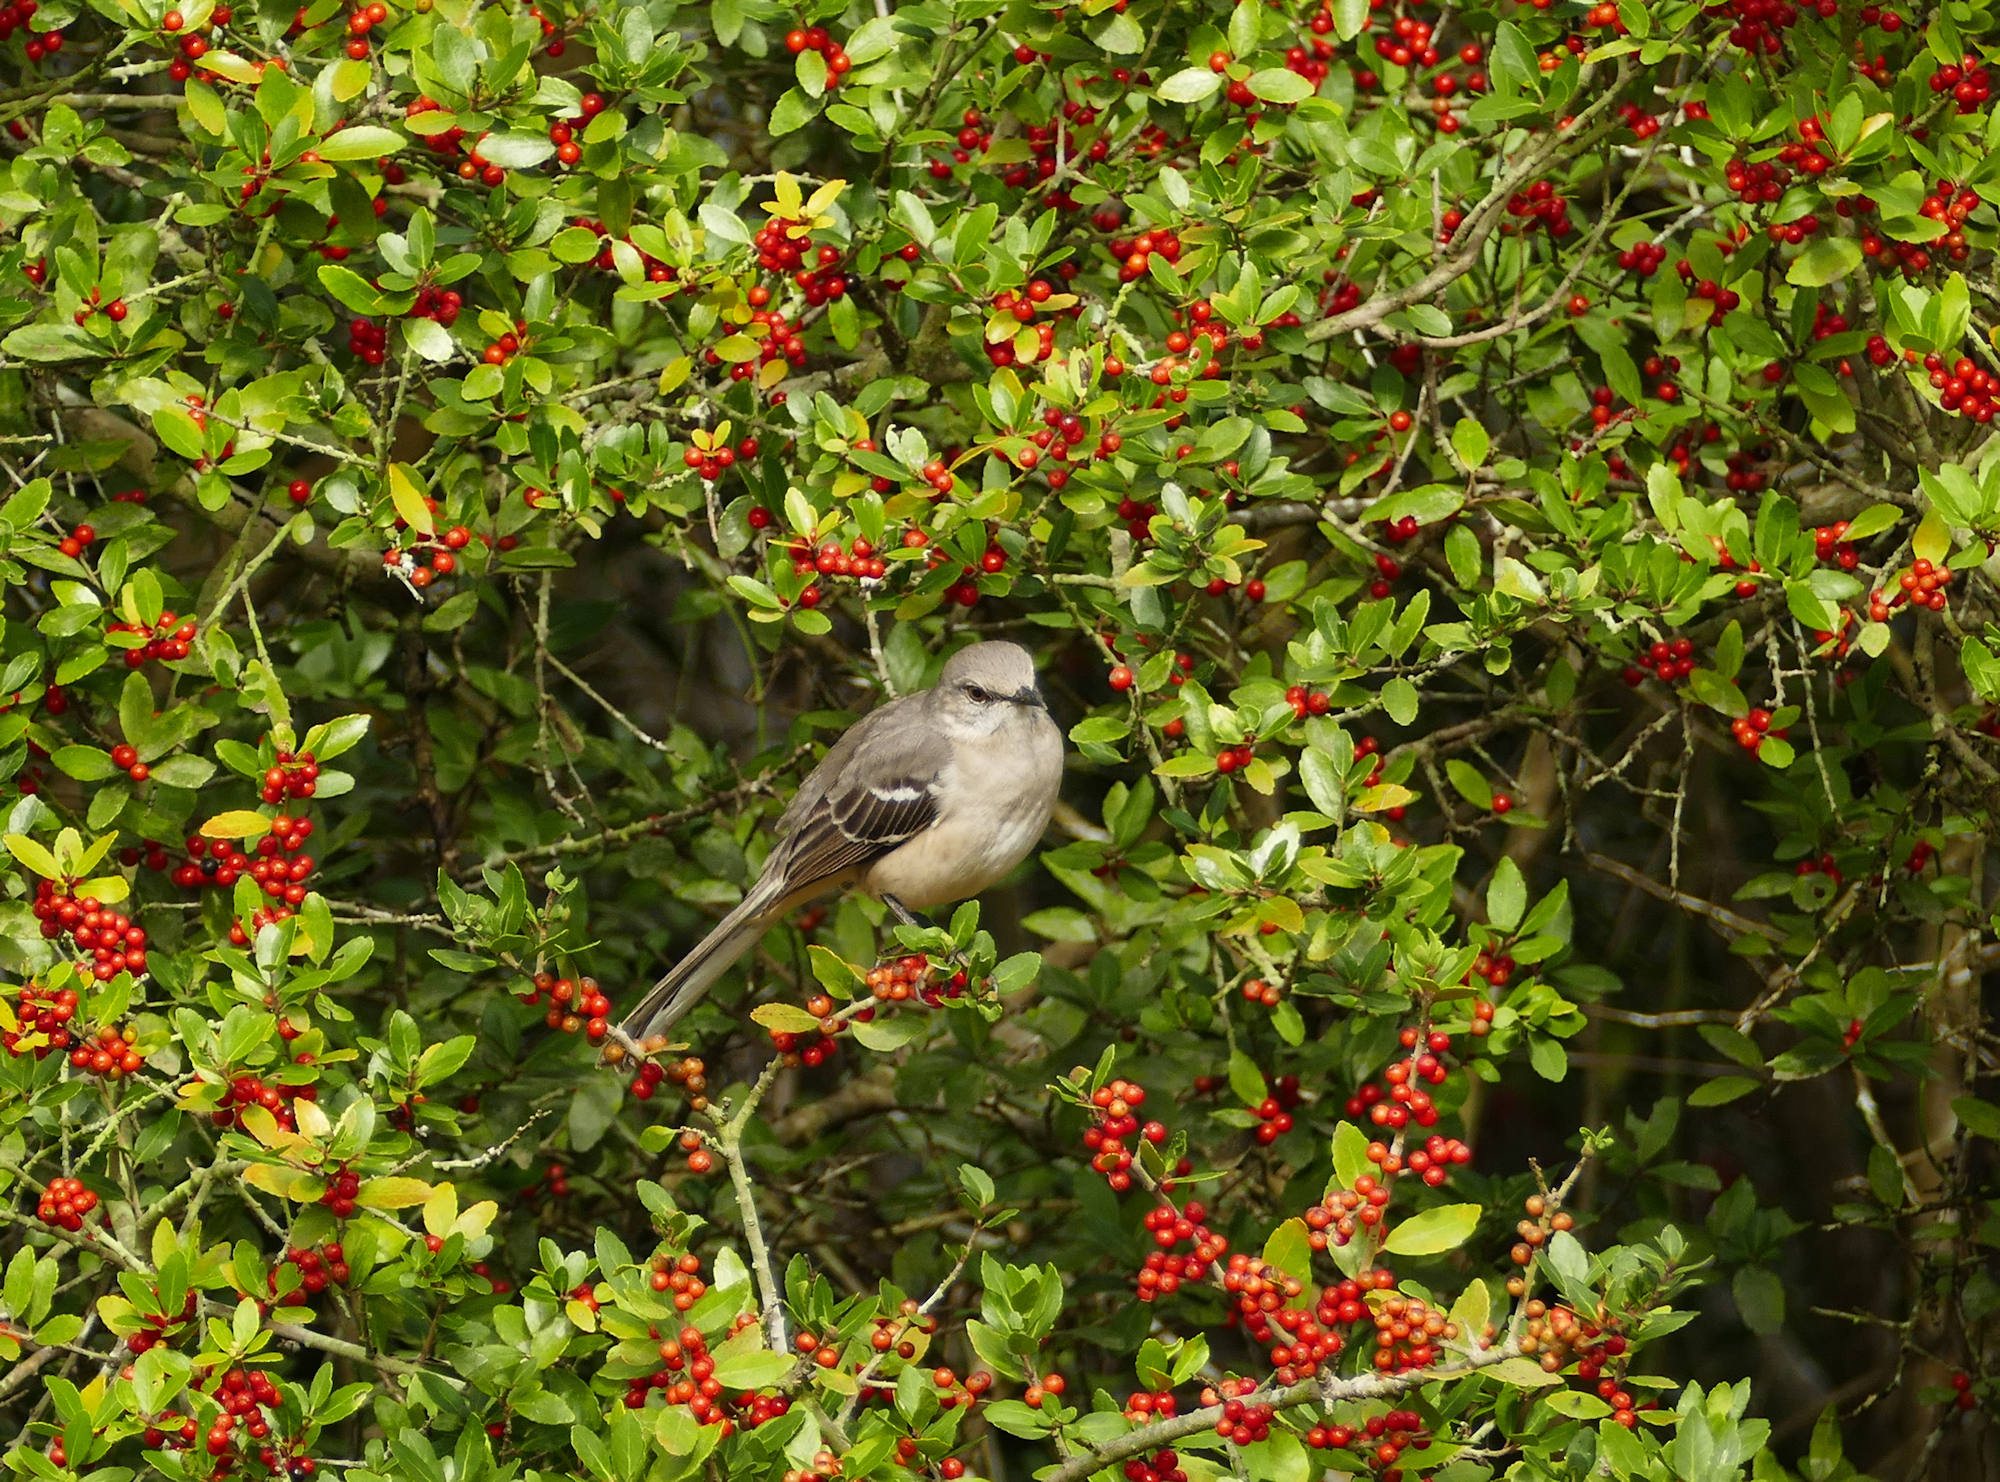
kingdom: Animalia
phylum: Chordata
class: Aves
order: Passeriformes
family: Mimidae
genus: Mimus
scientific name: Mimus polyglottos
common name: Northern mockingbird
